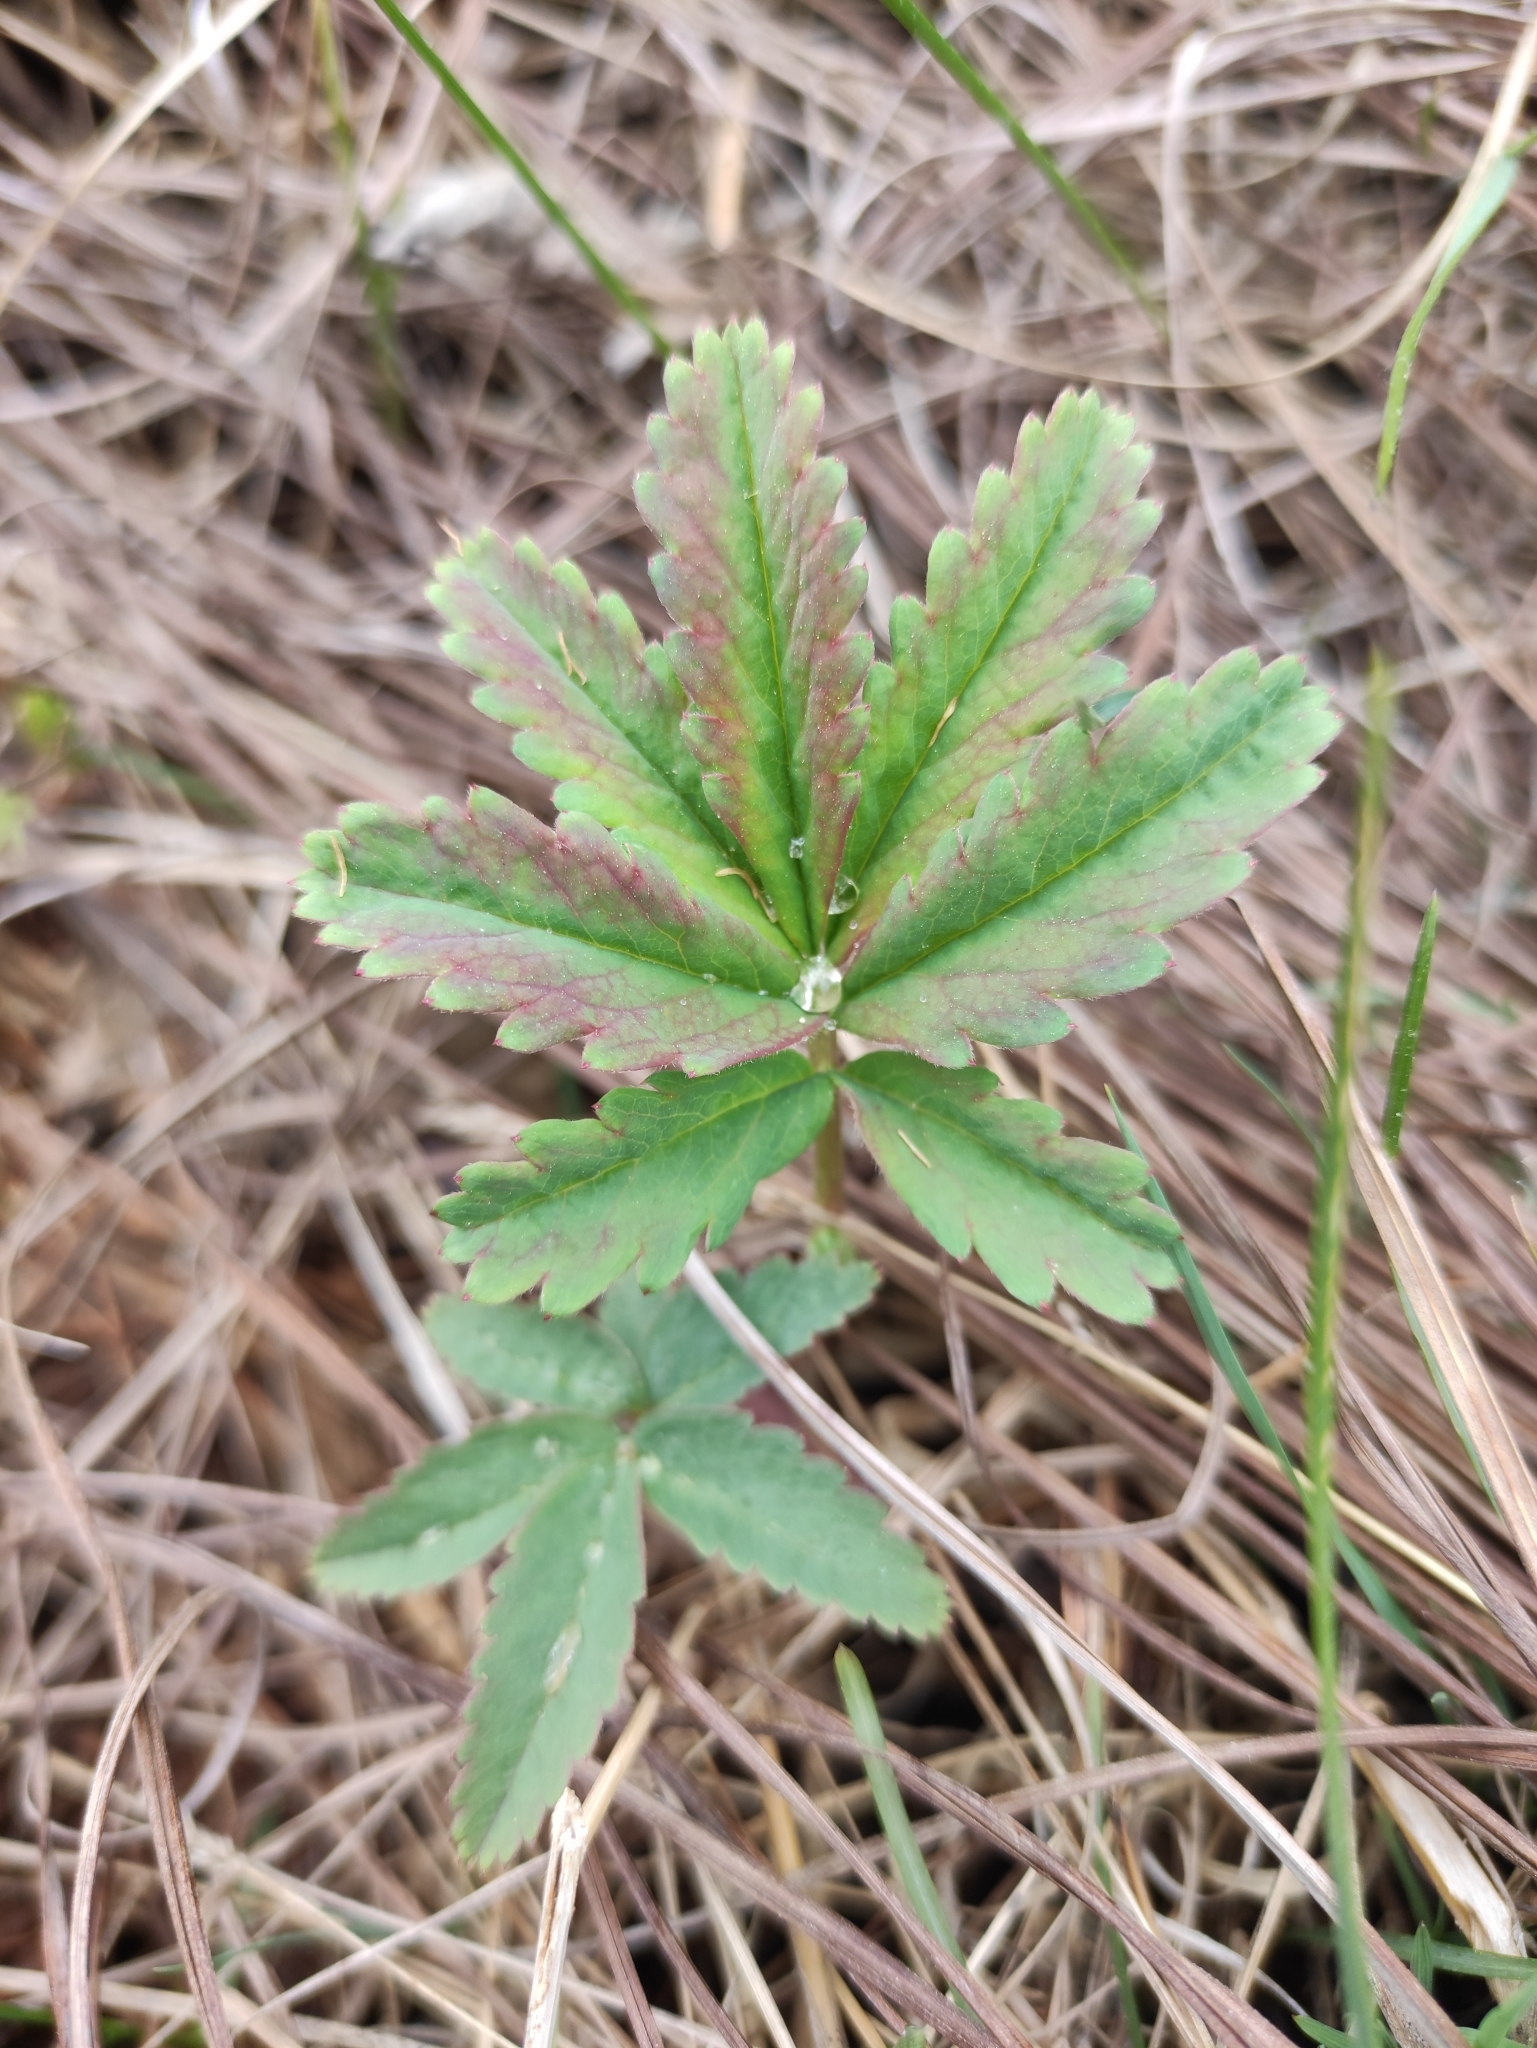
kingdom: Plantae
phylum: Tracheophyta
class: Magnoliopsida
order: Rosales
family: Rosaceae
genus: Comarum
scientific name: Comarum palustre
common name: Marsh cinquefoil
